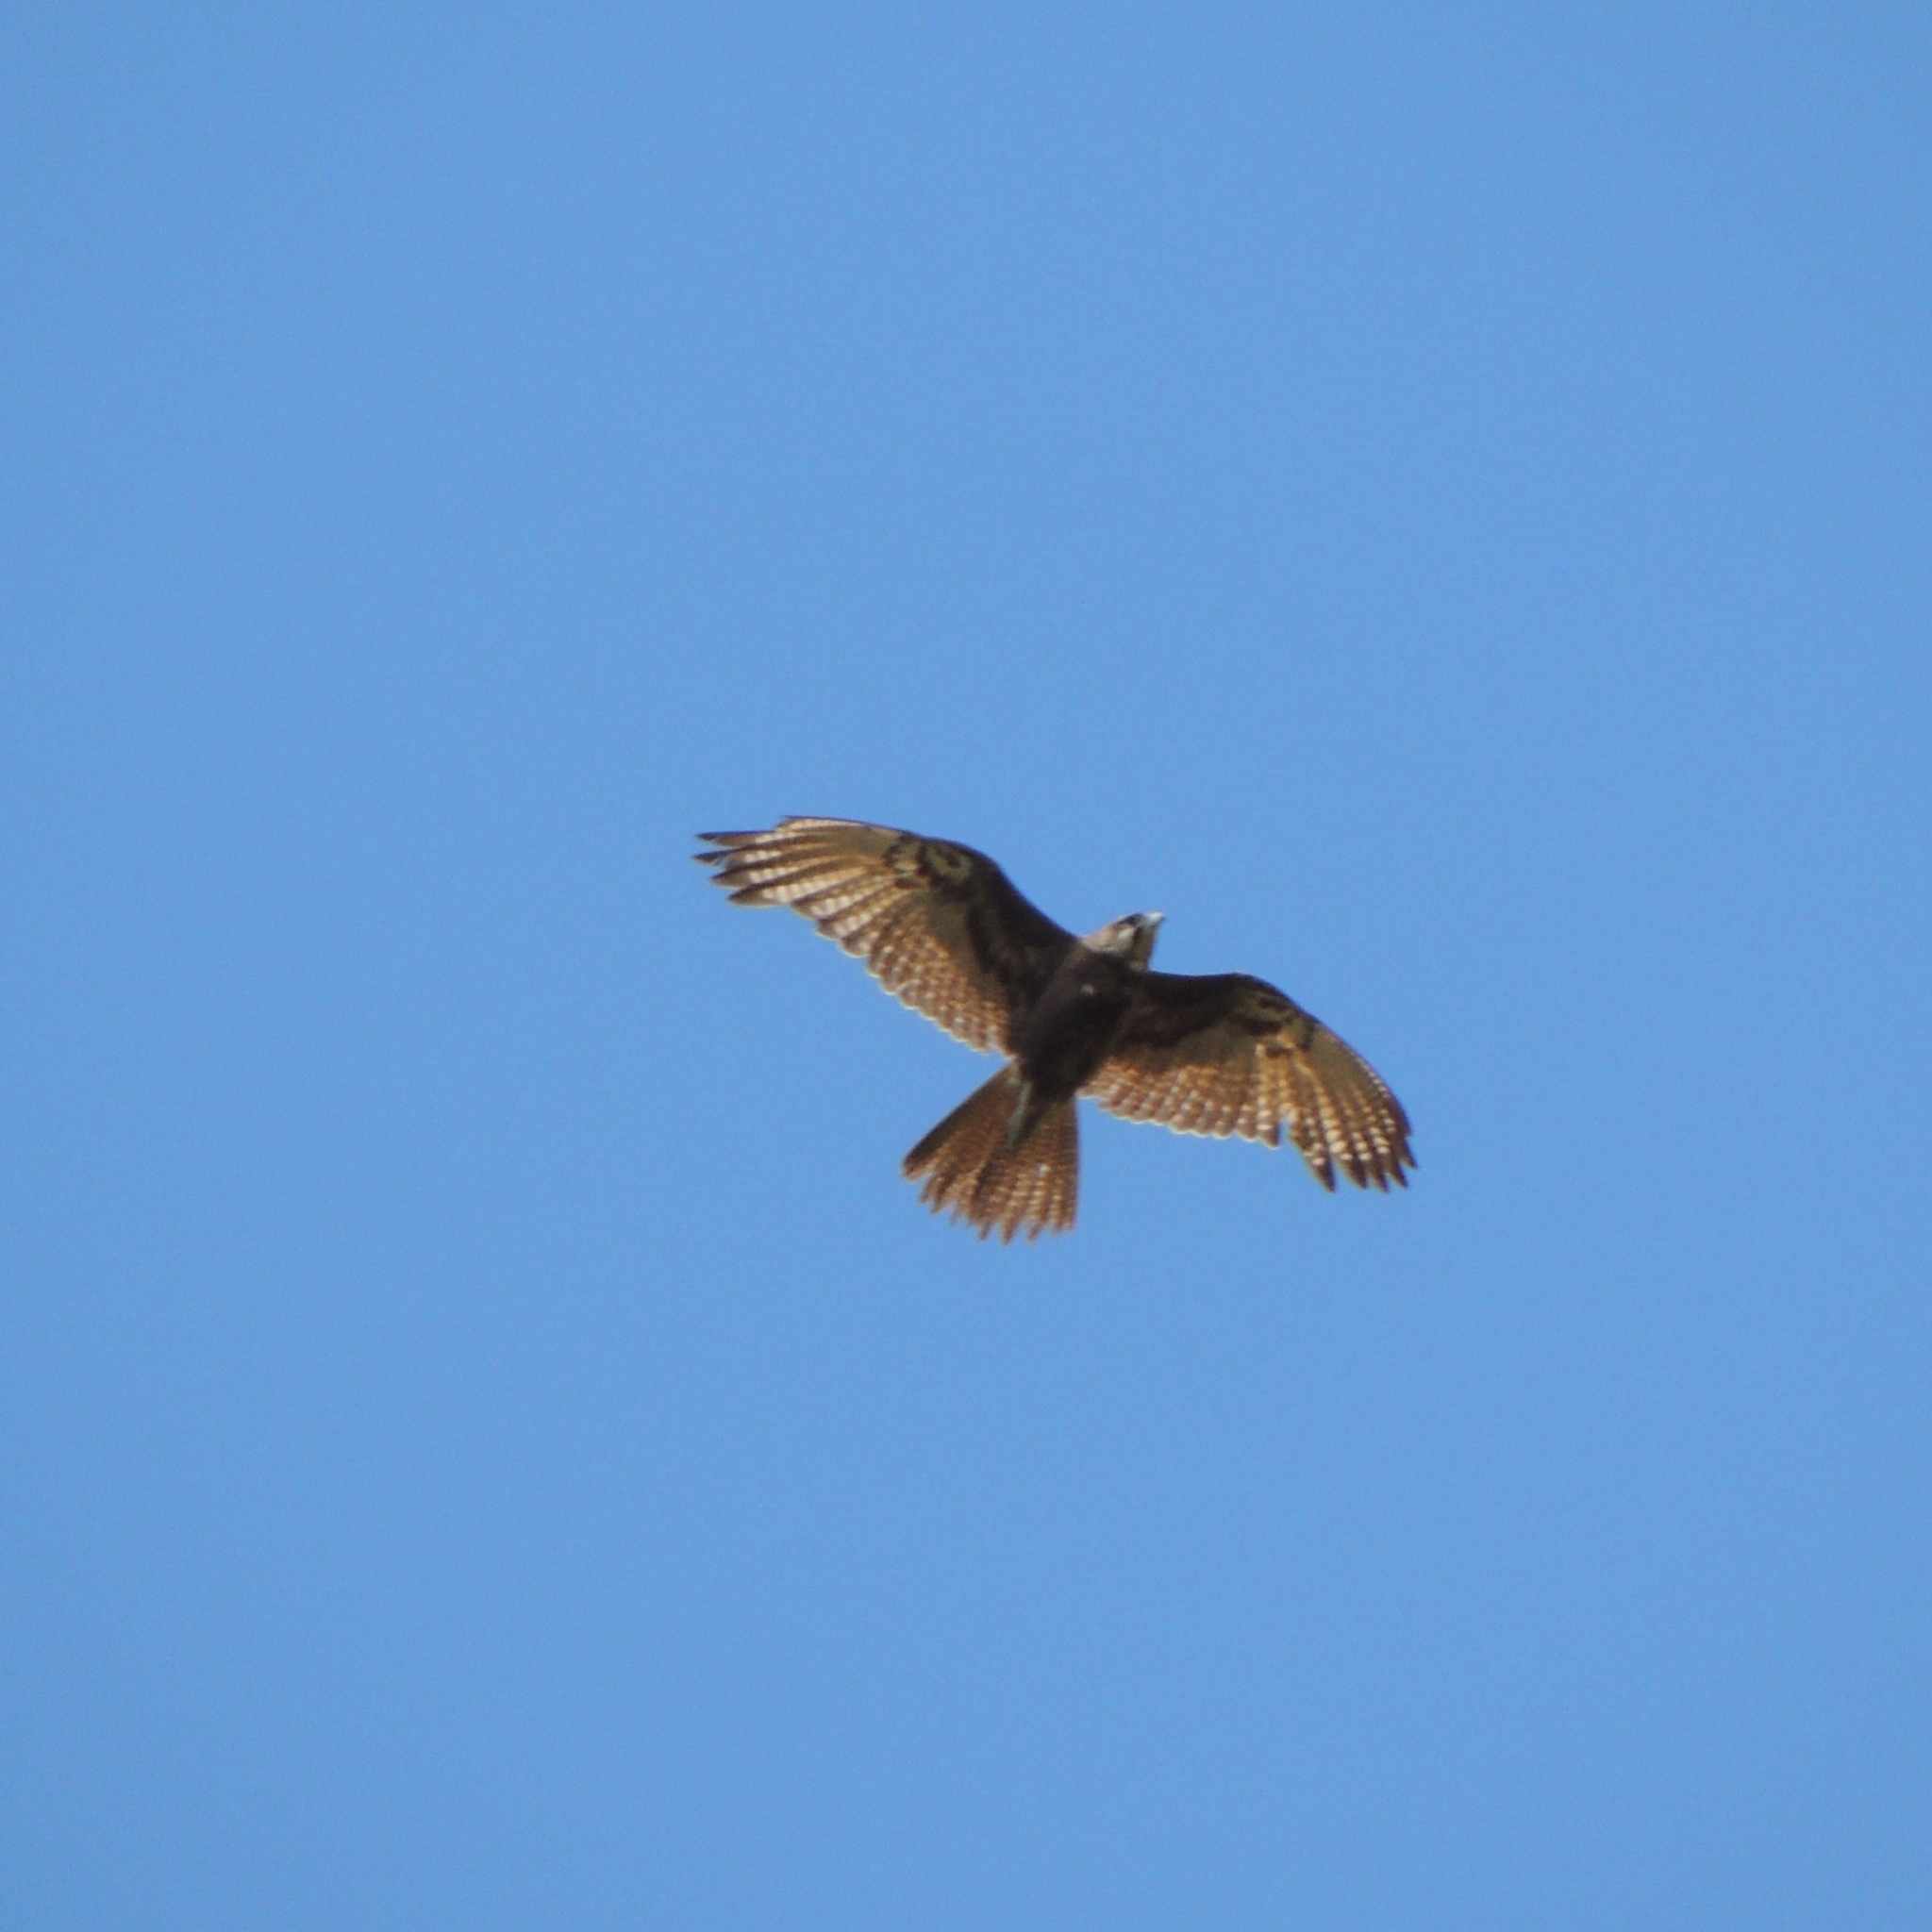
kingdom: Animalia
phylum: Chordata
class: Aves
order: Falconiformes
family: Falconidae
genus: Falco
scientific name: Falco berigora
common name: Brown falcon
